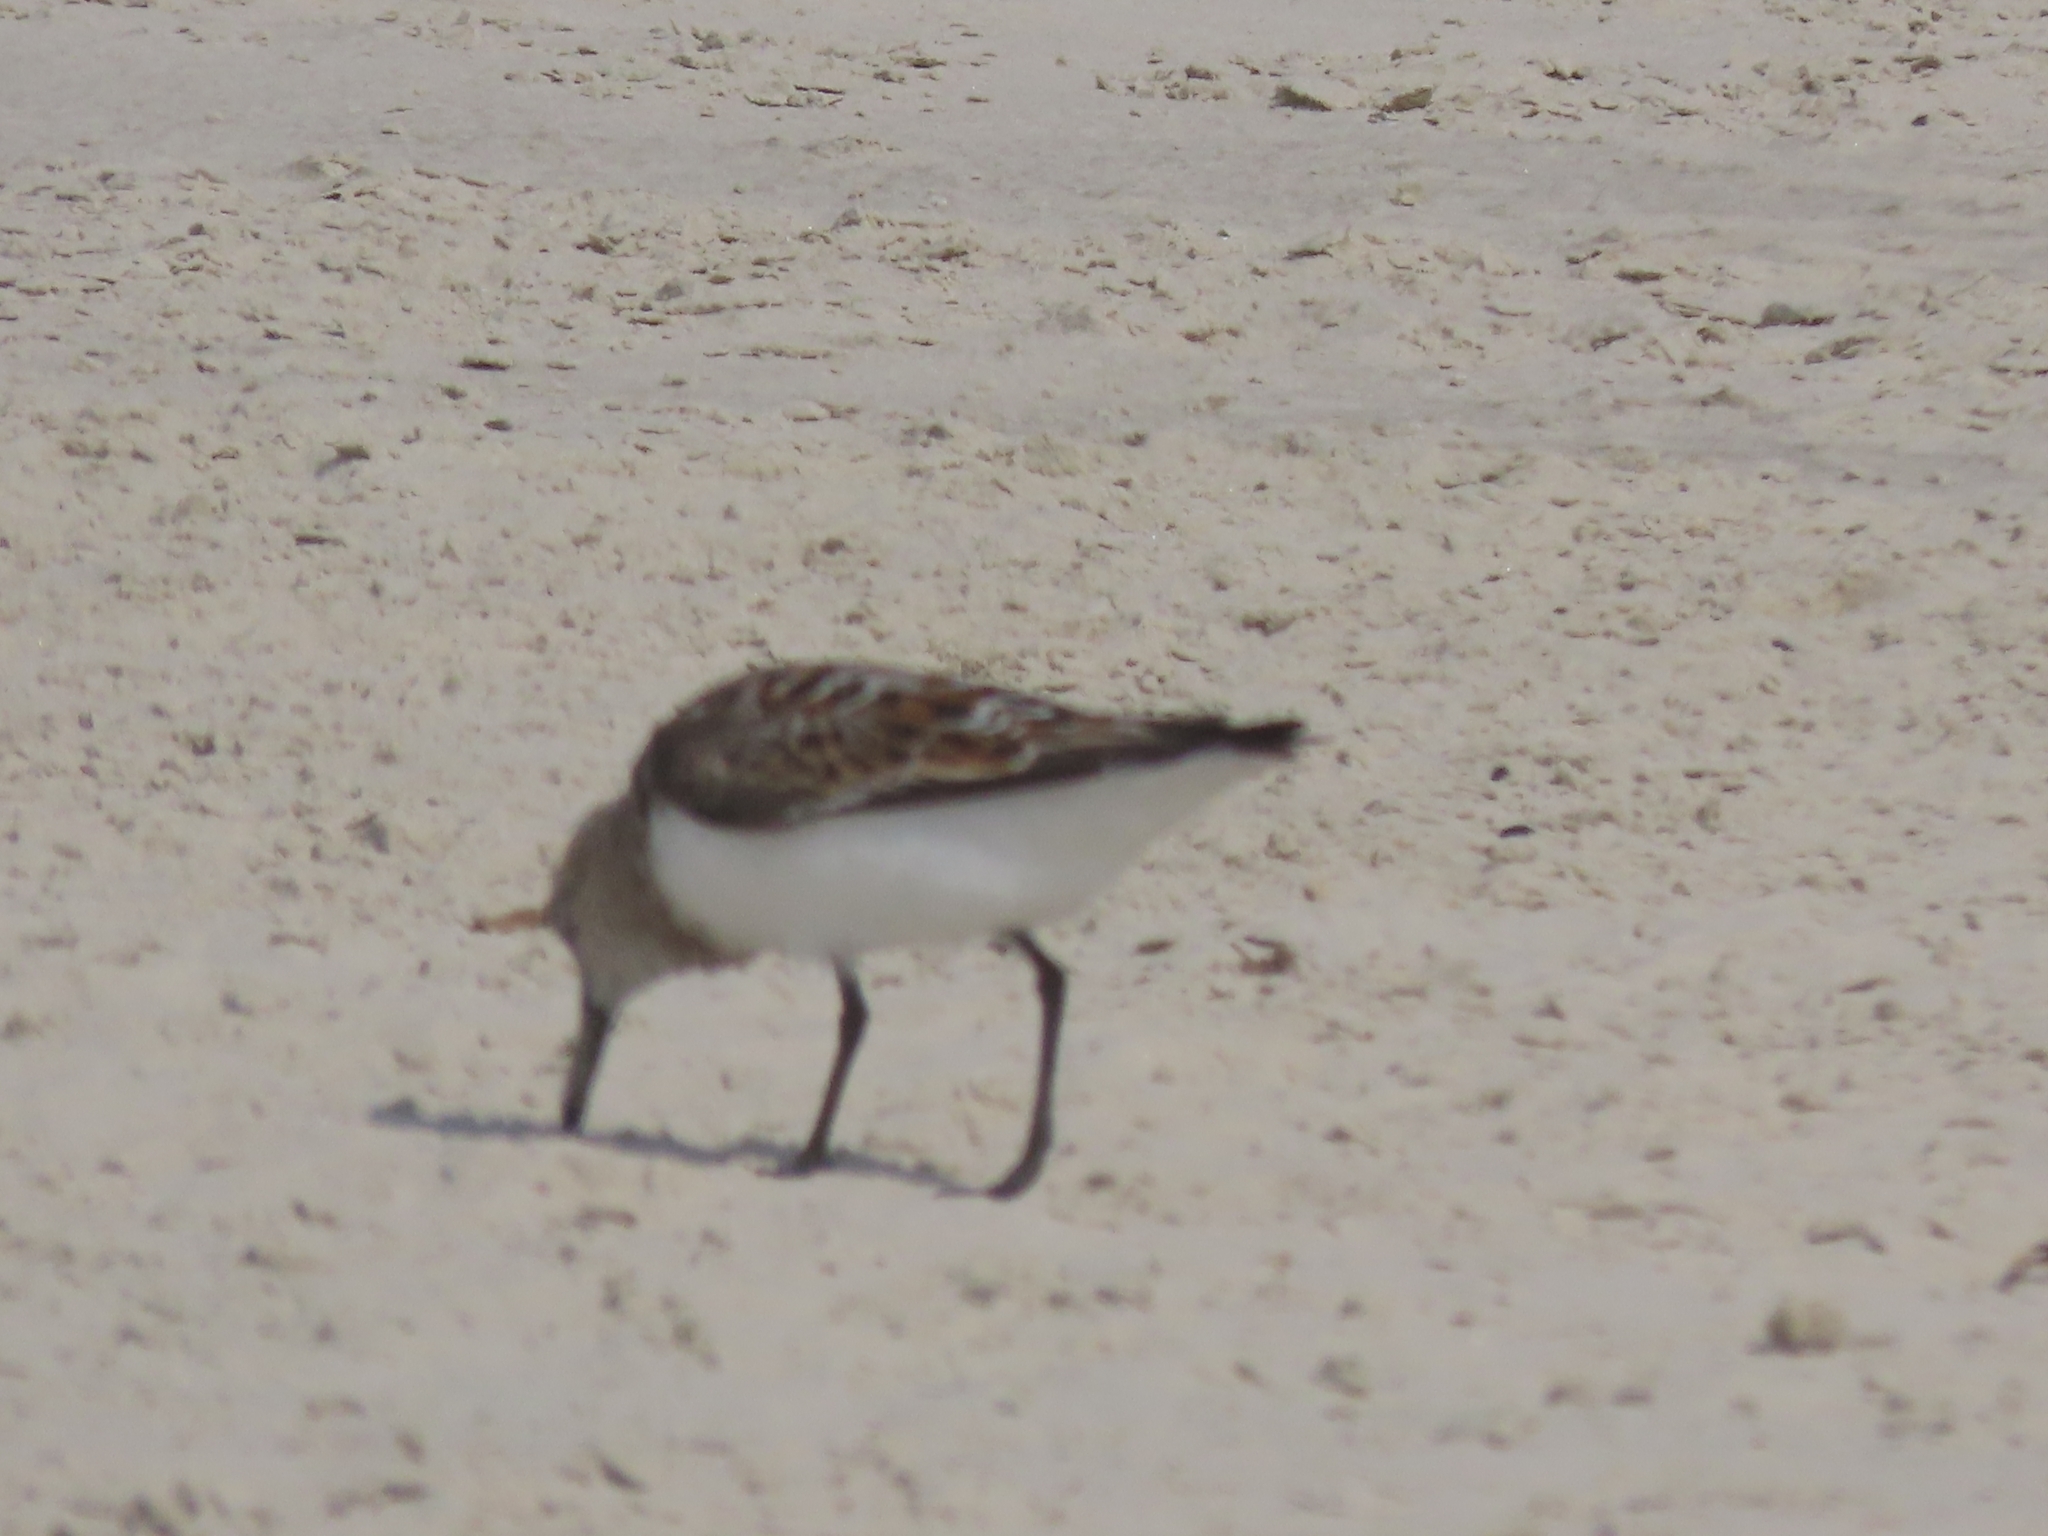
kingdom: Animalia
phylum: Chordata
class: Aves
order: Charadriiformes
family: Scolopacidae
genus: Calidris
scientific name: Calidris alba
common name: Sanderling
